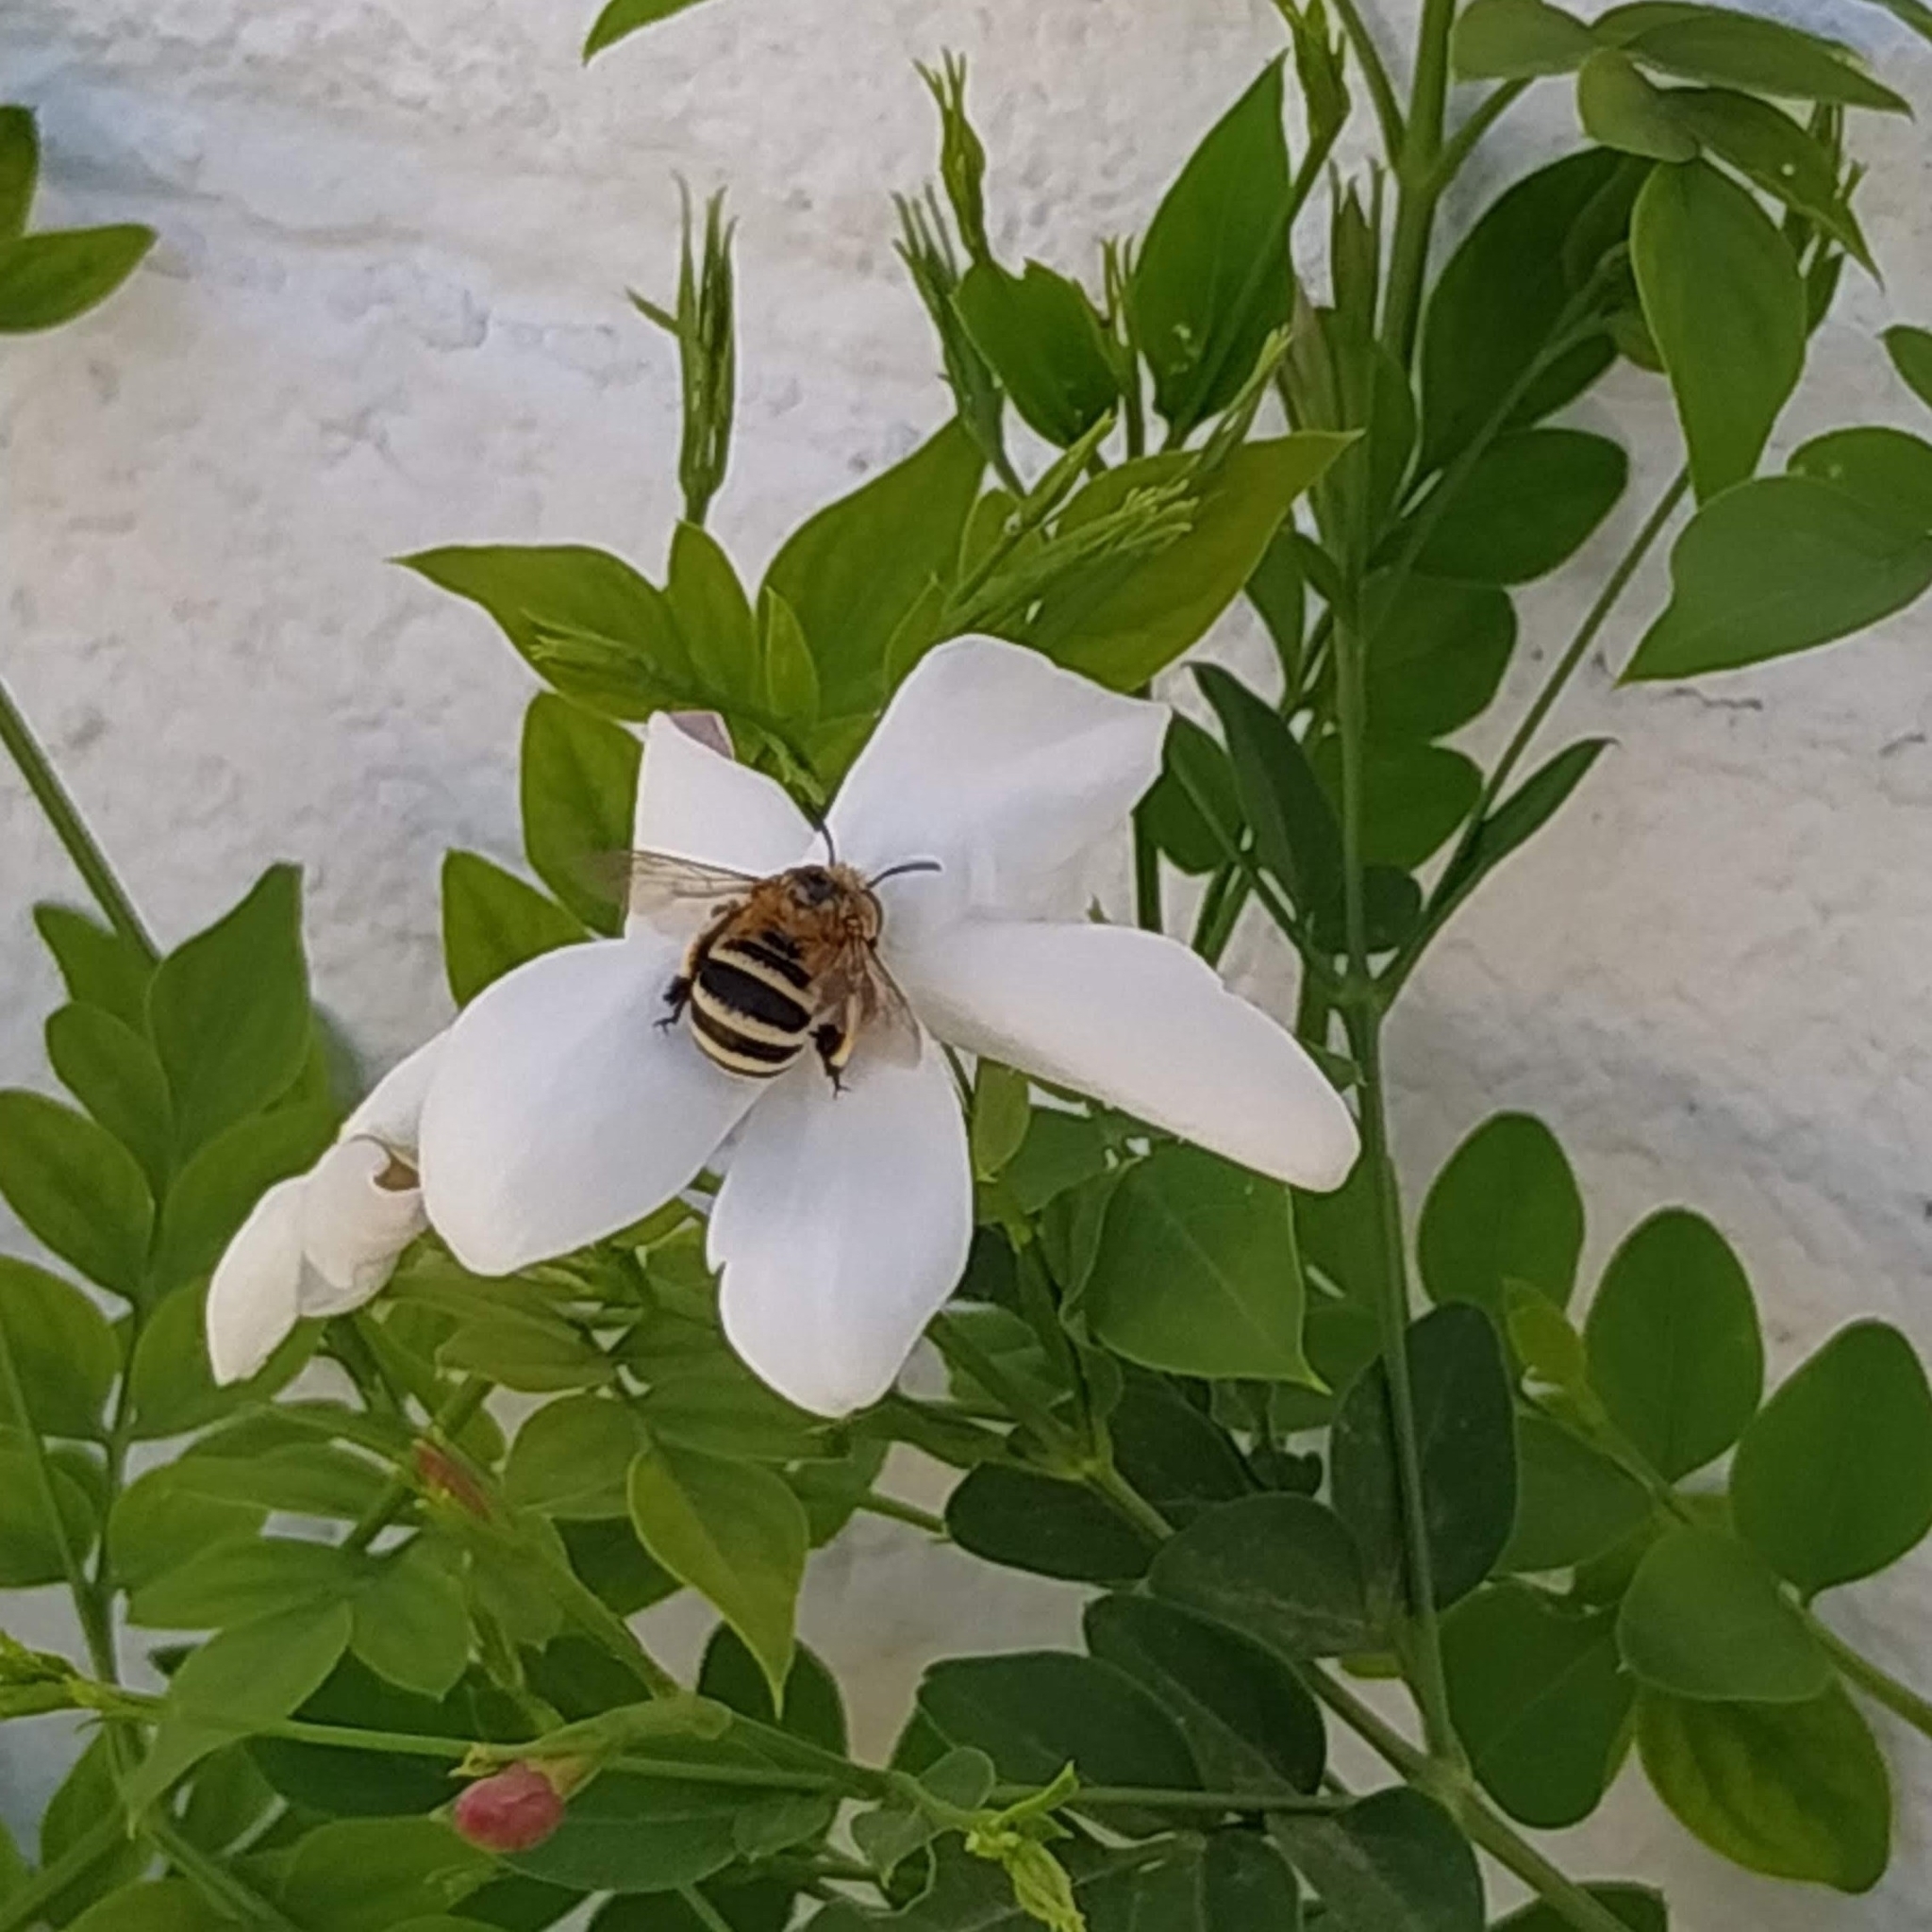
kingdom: Animalia
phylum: Arthropoda
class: Insecta
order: Hymenoptera
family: Apidae
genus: Amegilla
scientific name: Amegilla quadrifasciata
